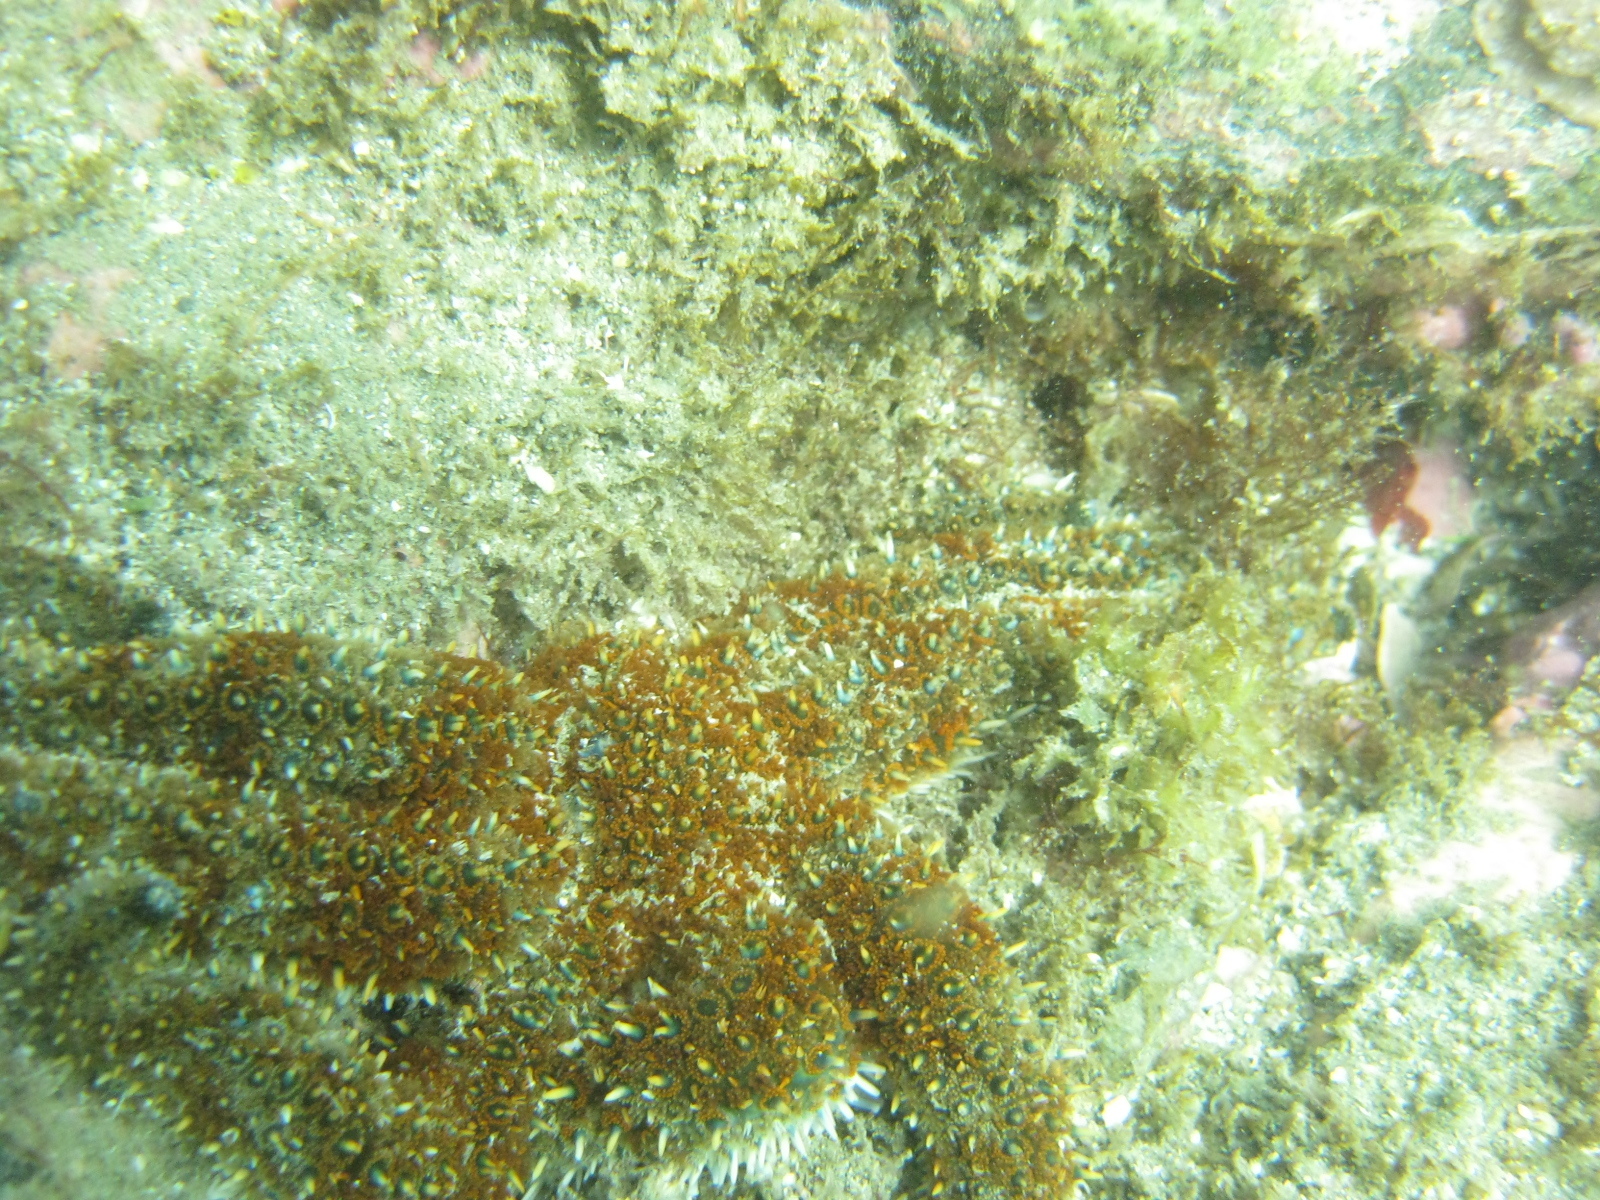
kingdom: Animalia
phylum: Echinodermata
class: Asteroidea
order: Forcipulatida
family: Asteriidae
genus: Coscinasterias
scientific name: Coscinasterias muricata
